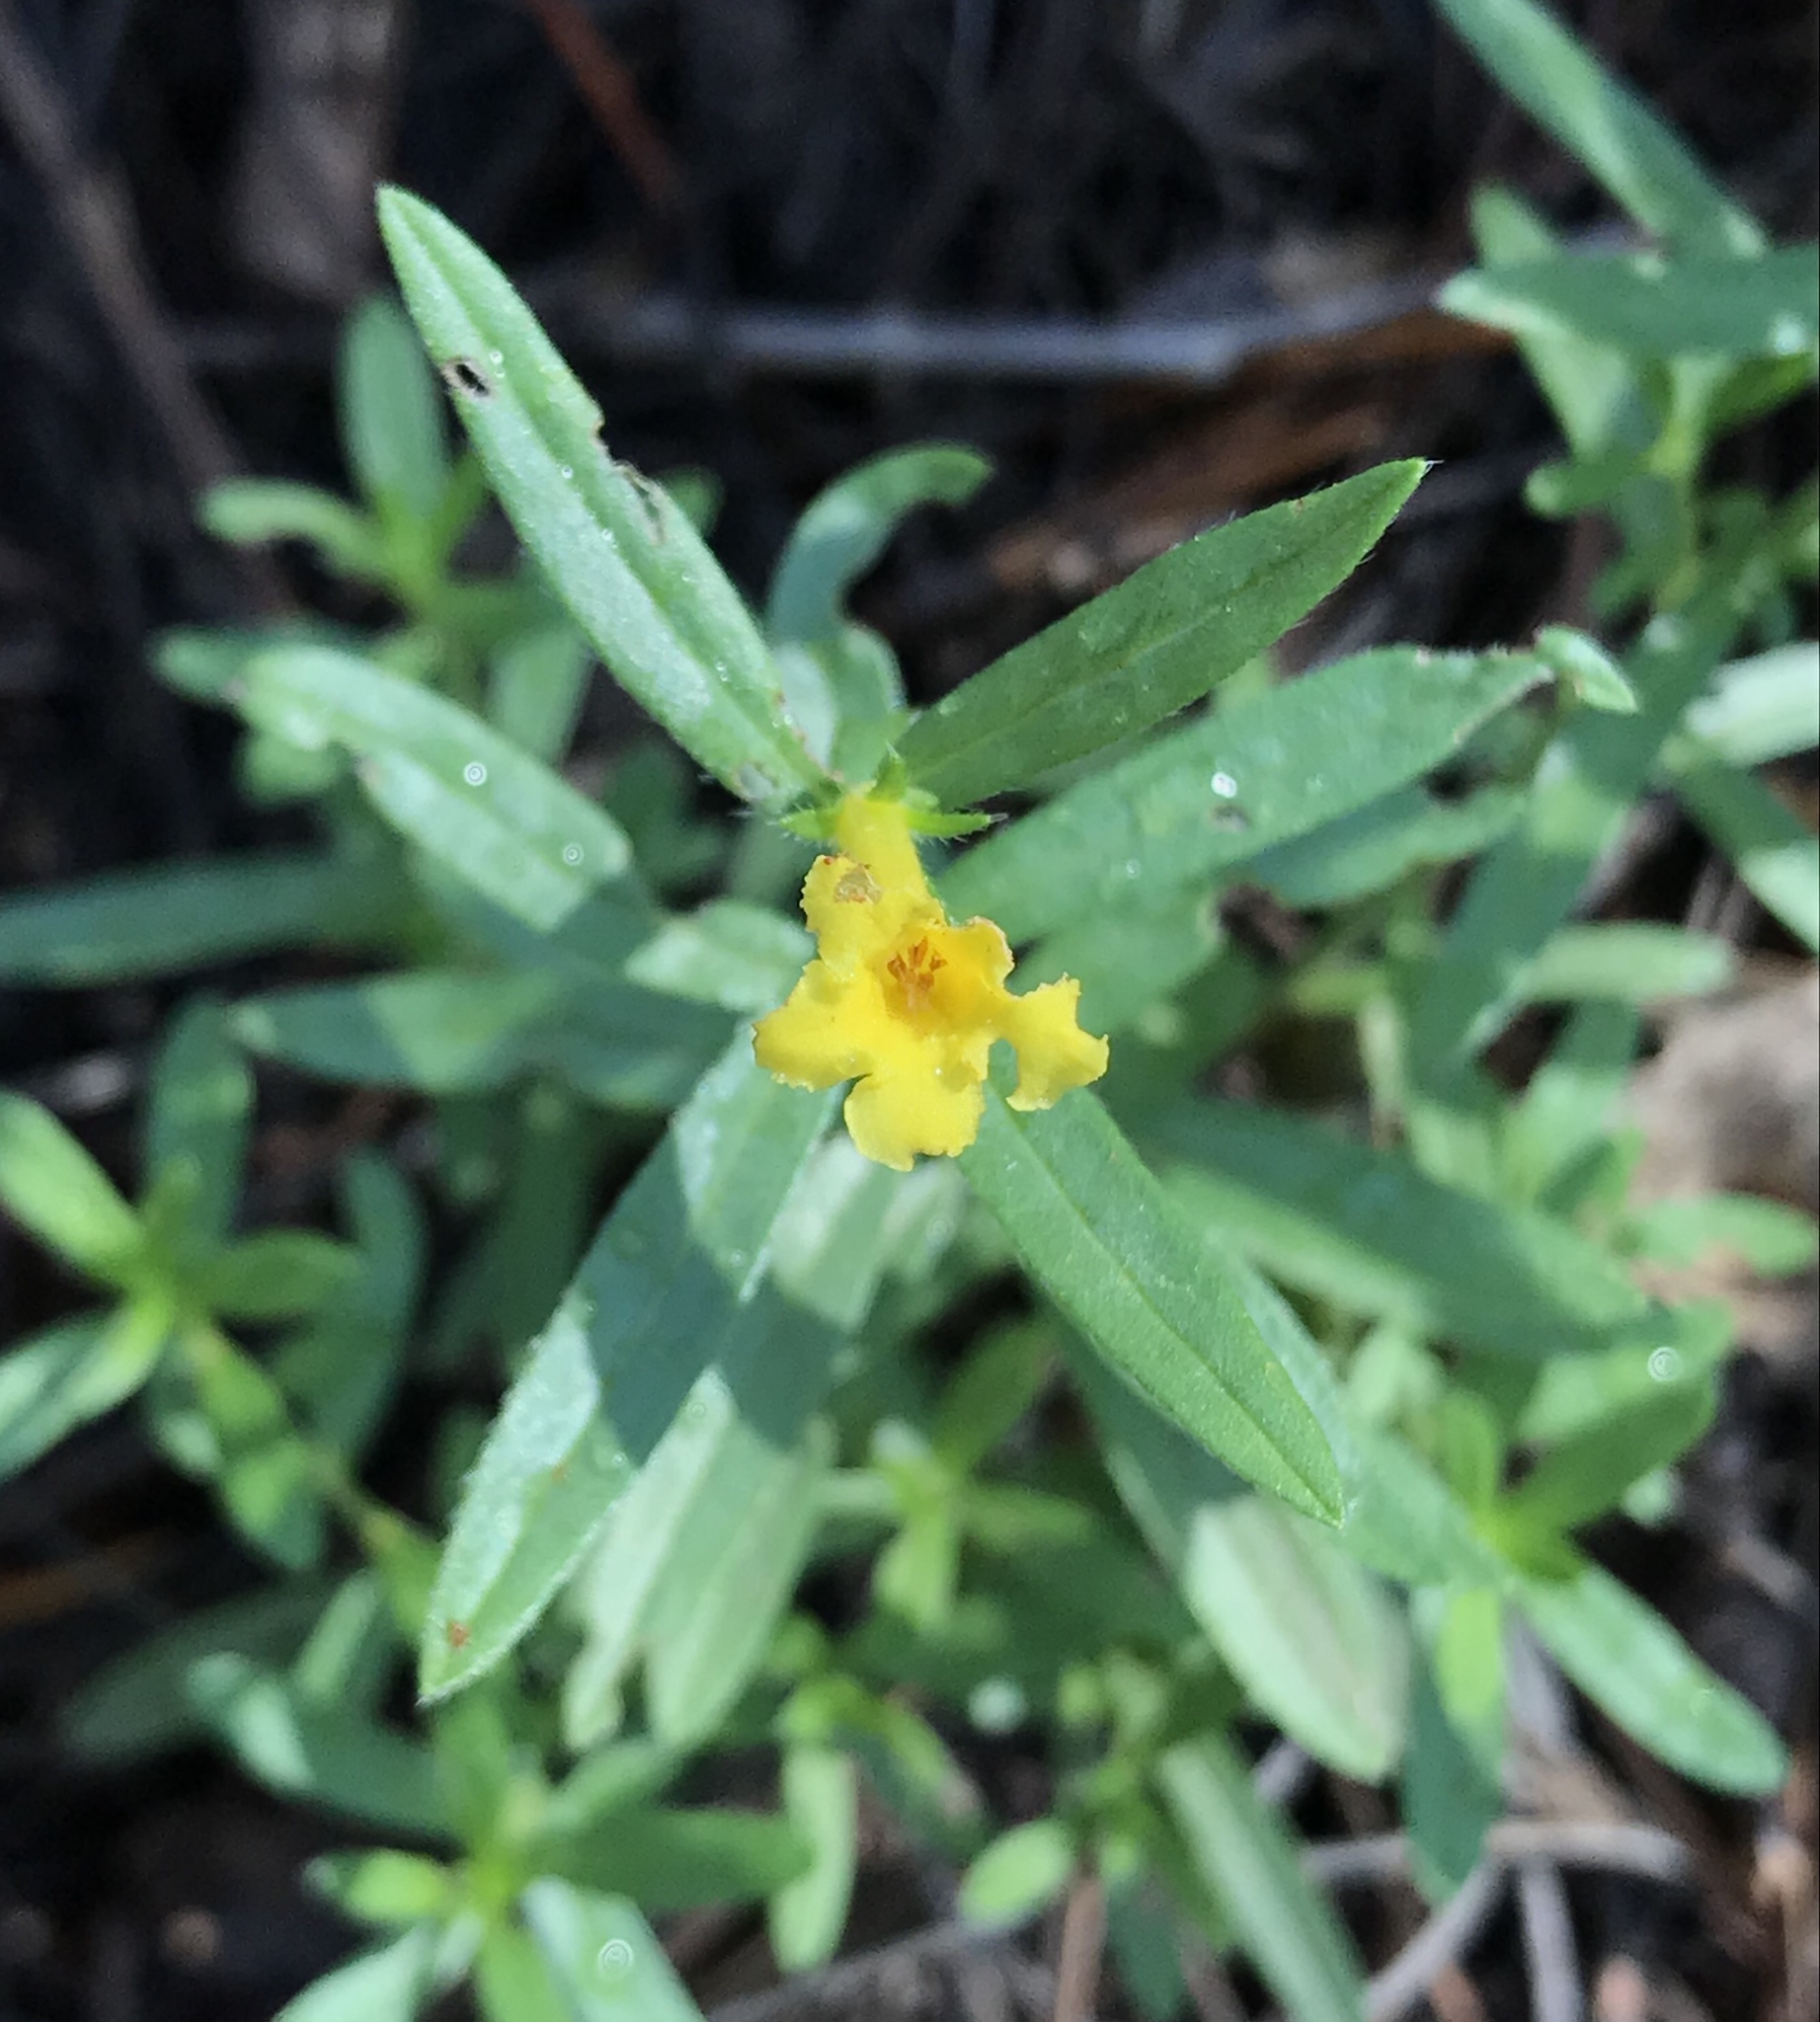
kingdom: Plantae
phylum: Tracheophyta
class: Magnoliopsida
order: Boraginales
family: Boraginaceae
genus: Lithospermum
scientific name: Lithospermum multiflorum
